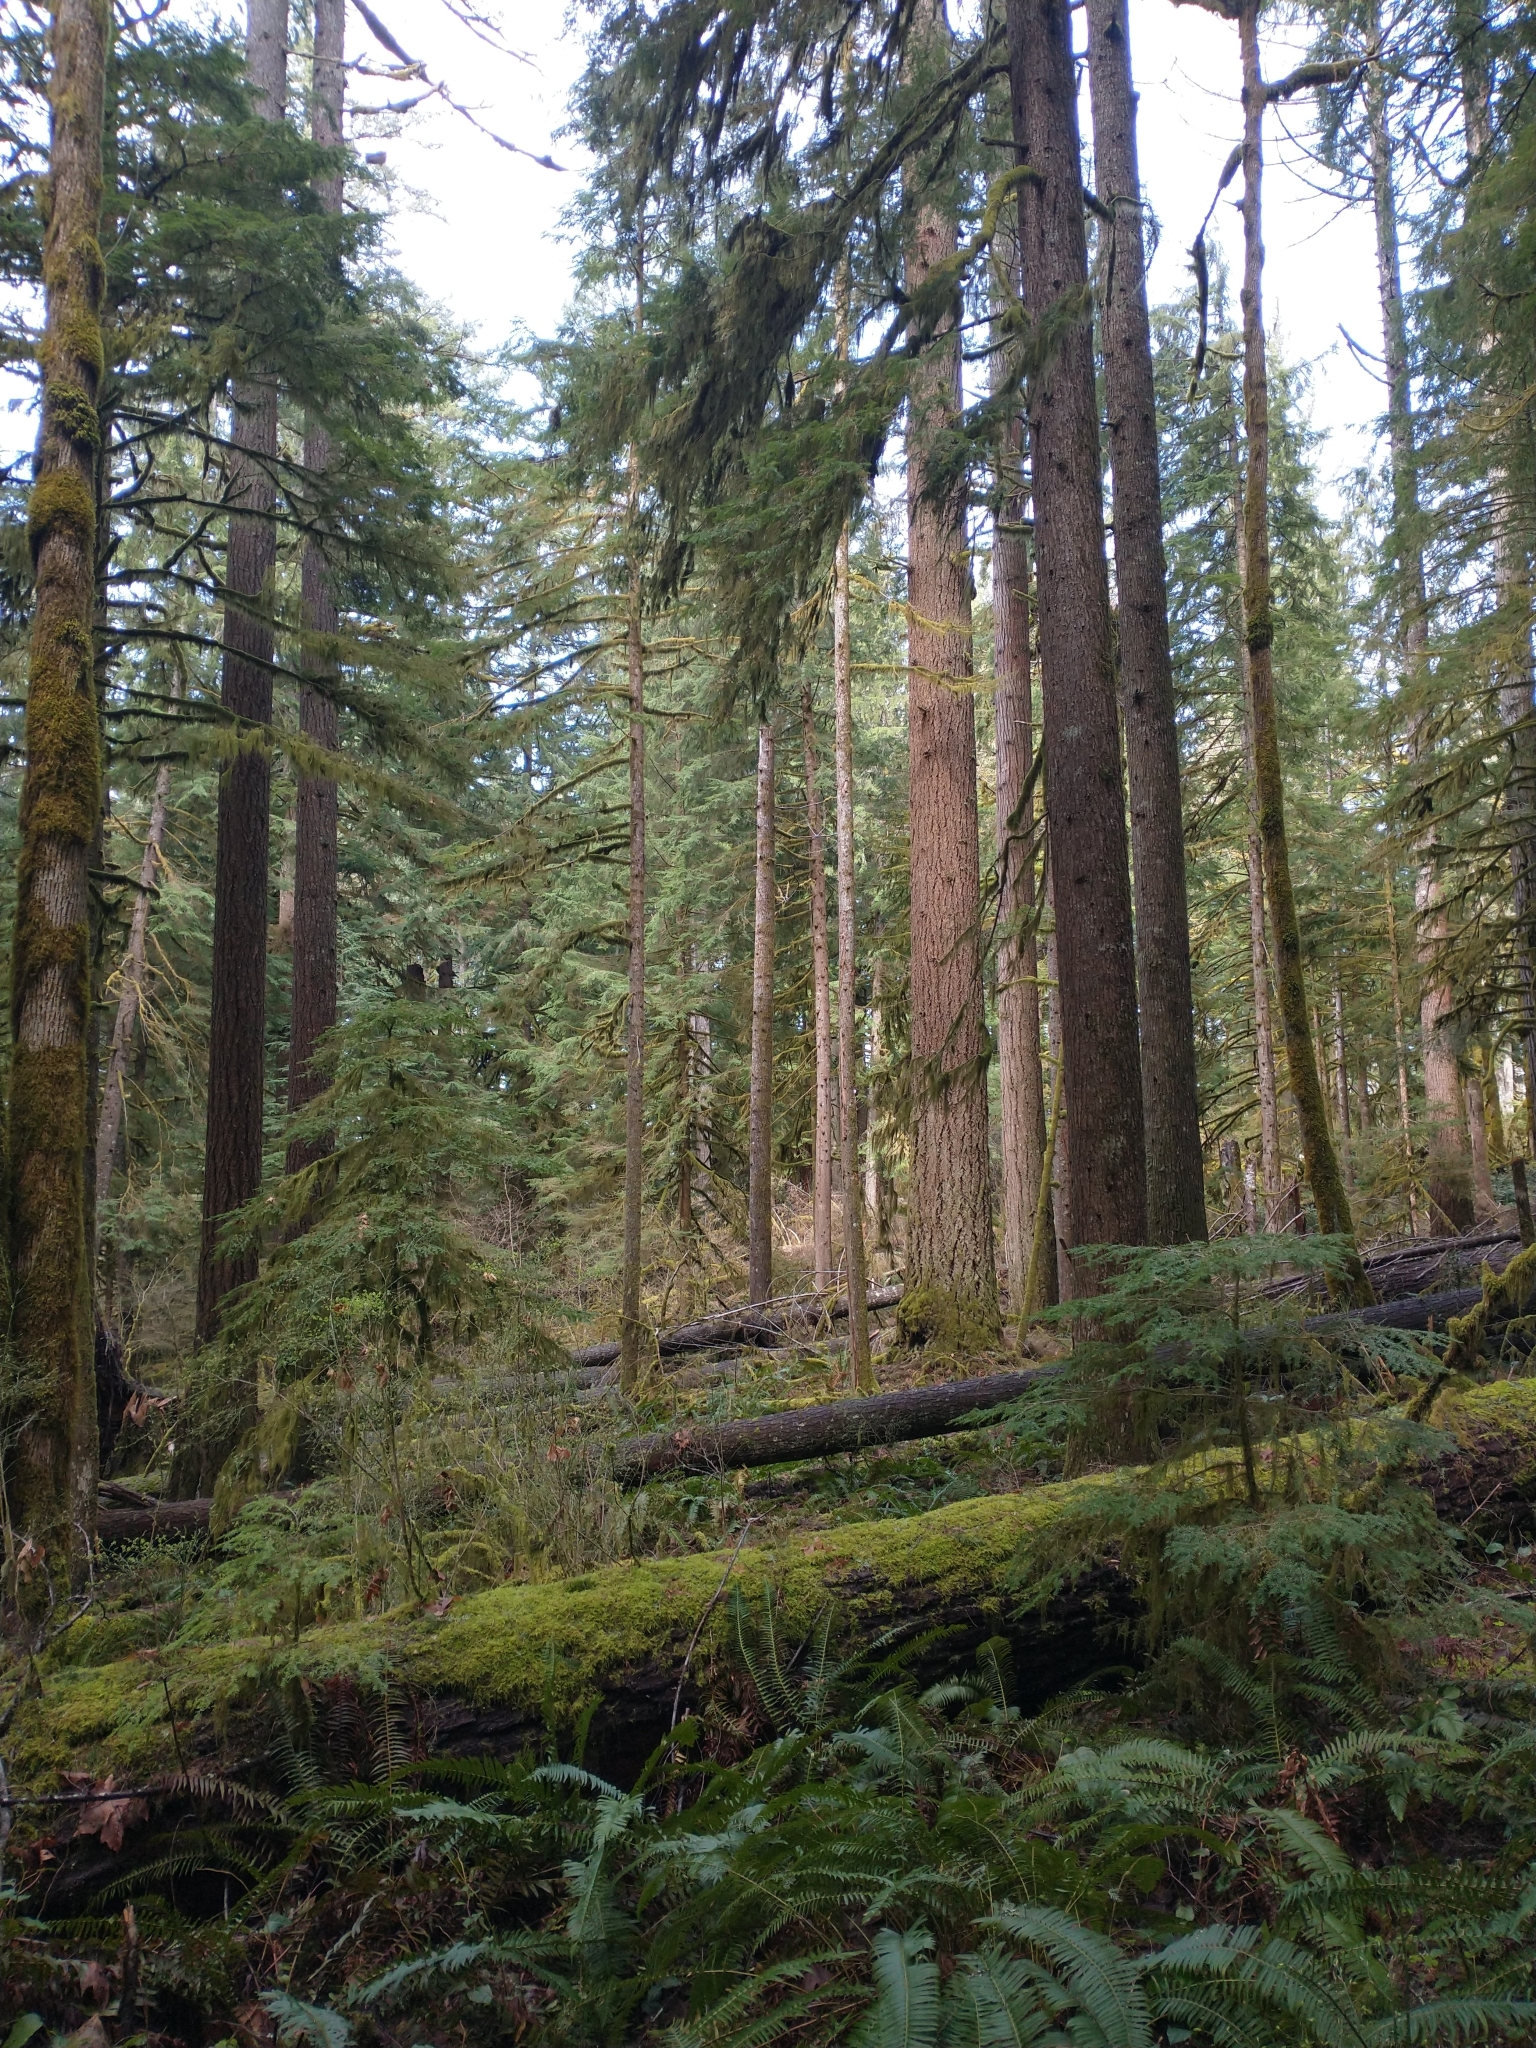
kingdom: Plantae
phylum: Tracheophyta
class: Pinopsida
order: Pinales
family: Pinaceae
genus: Tsuga
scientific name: Tsuga heterophylla
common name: Western hemlock
